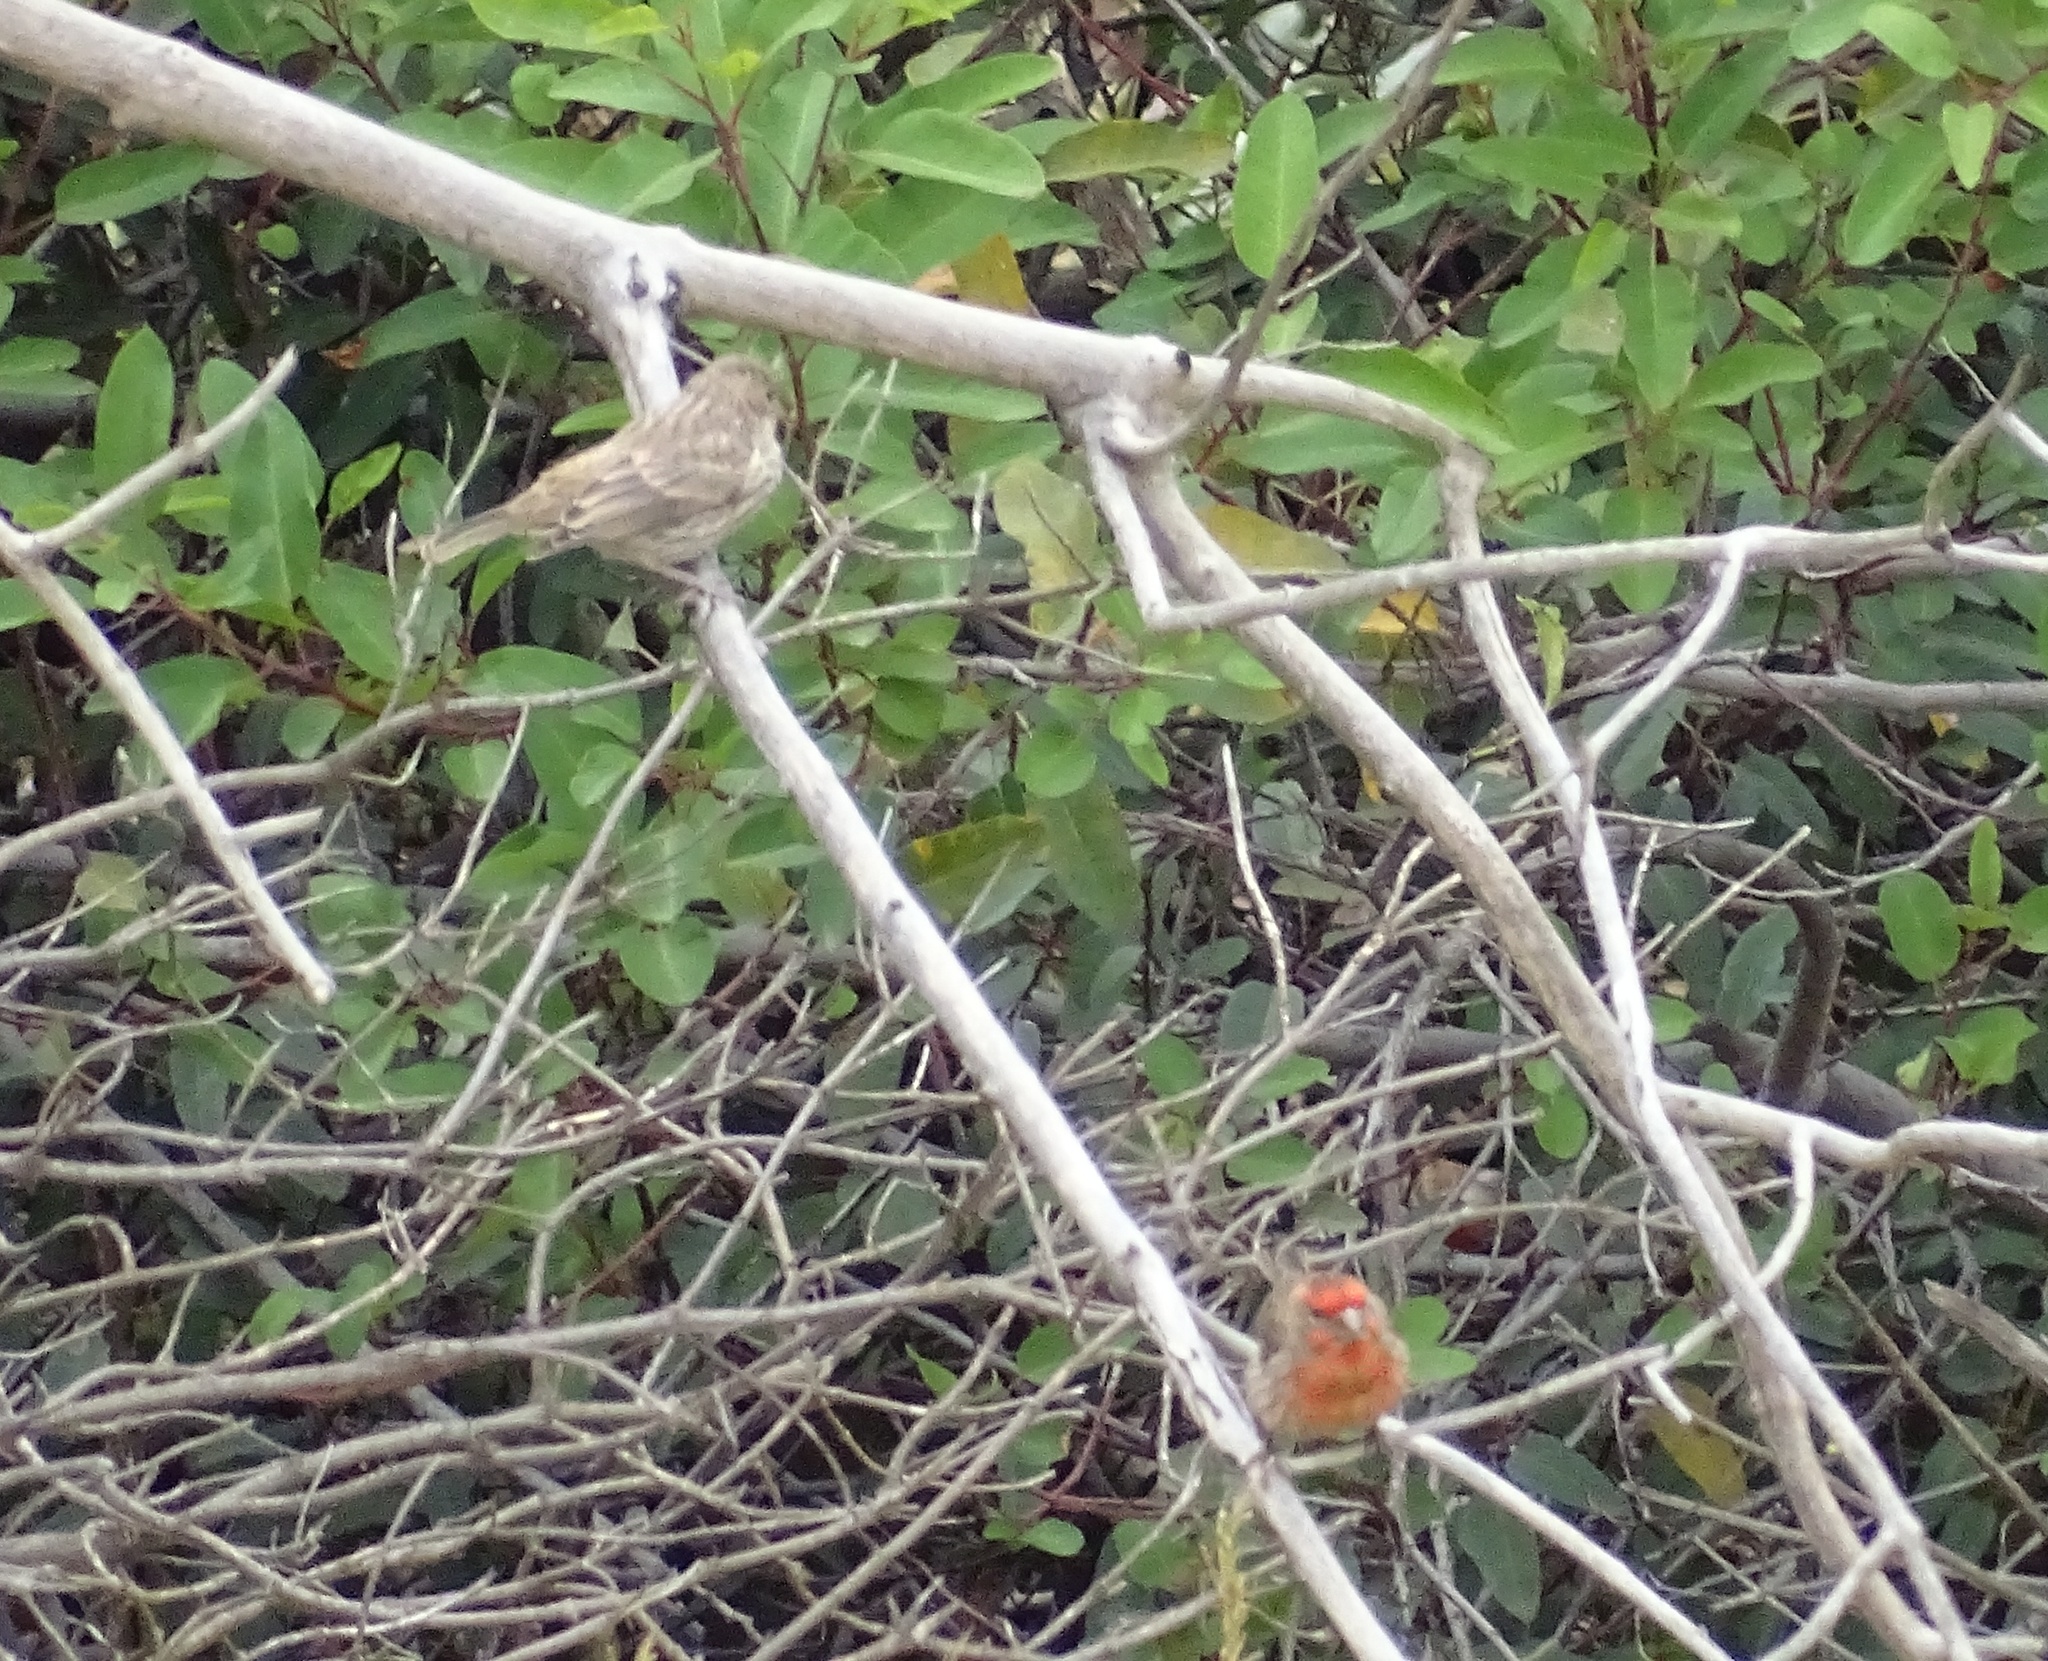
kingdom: Animalia
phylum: Chordata
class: Aves
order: Passeriformes
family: Fringillidae
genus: Haemorhous
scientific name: Haemorhous mexicanus
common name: House finch
